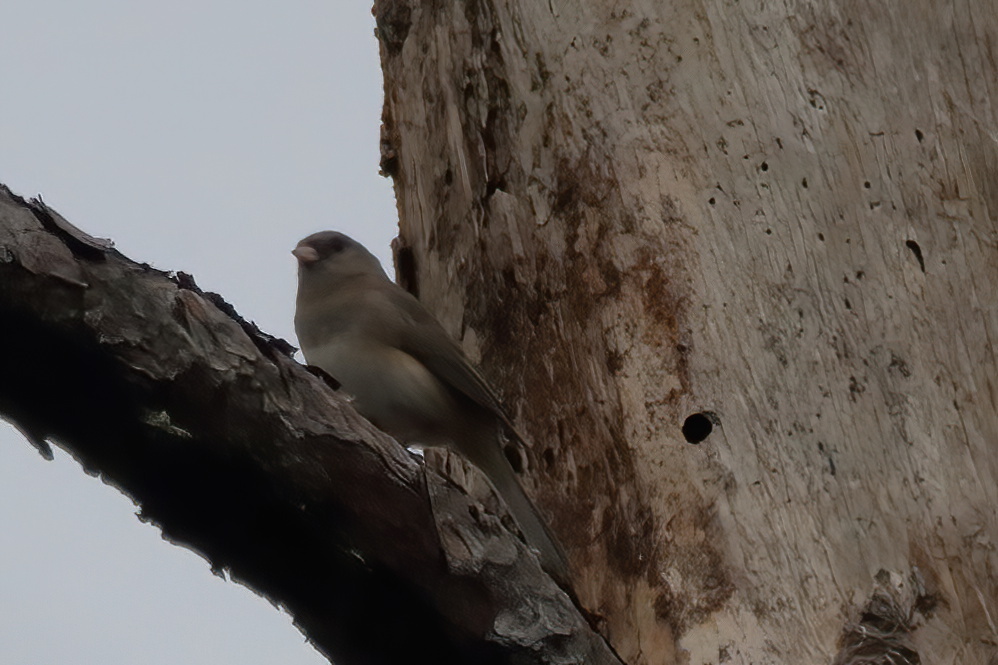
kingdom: Animalia
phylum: Chordata
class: Aves
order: Passeriformes
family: Passerellidae
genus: Junco
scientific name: Junco hyemalis
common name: Dark-eyed junco
